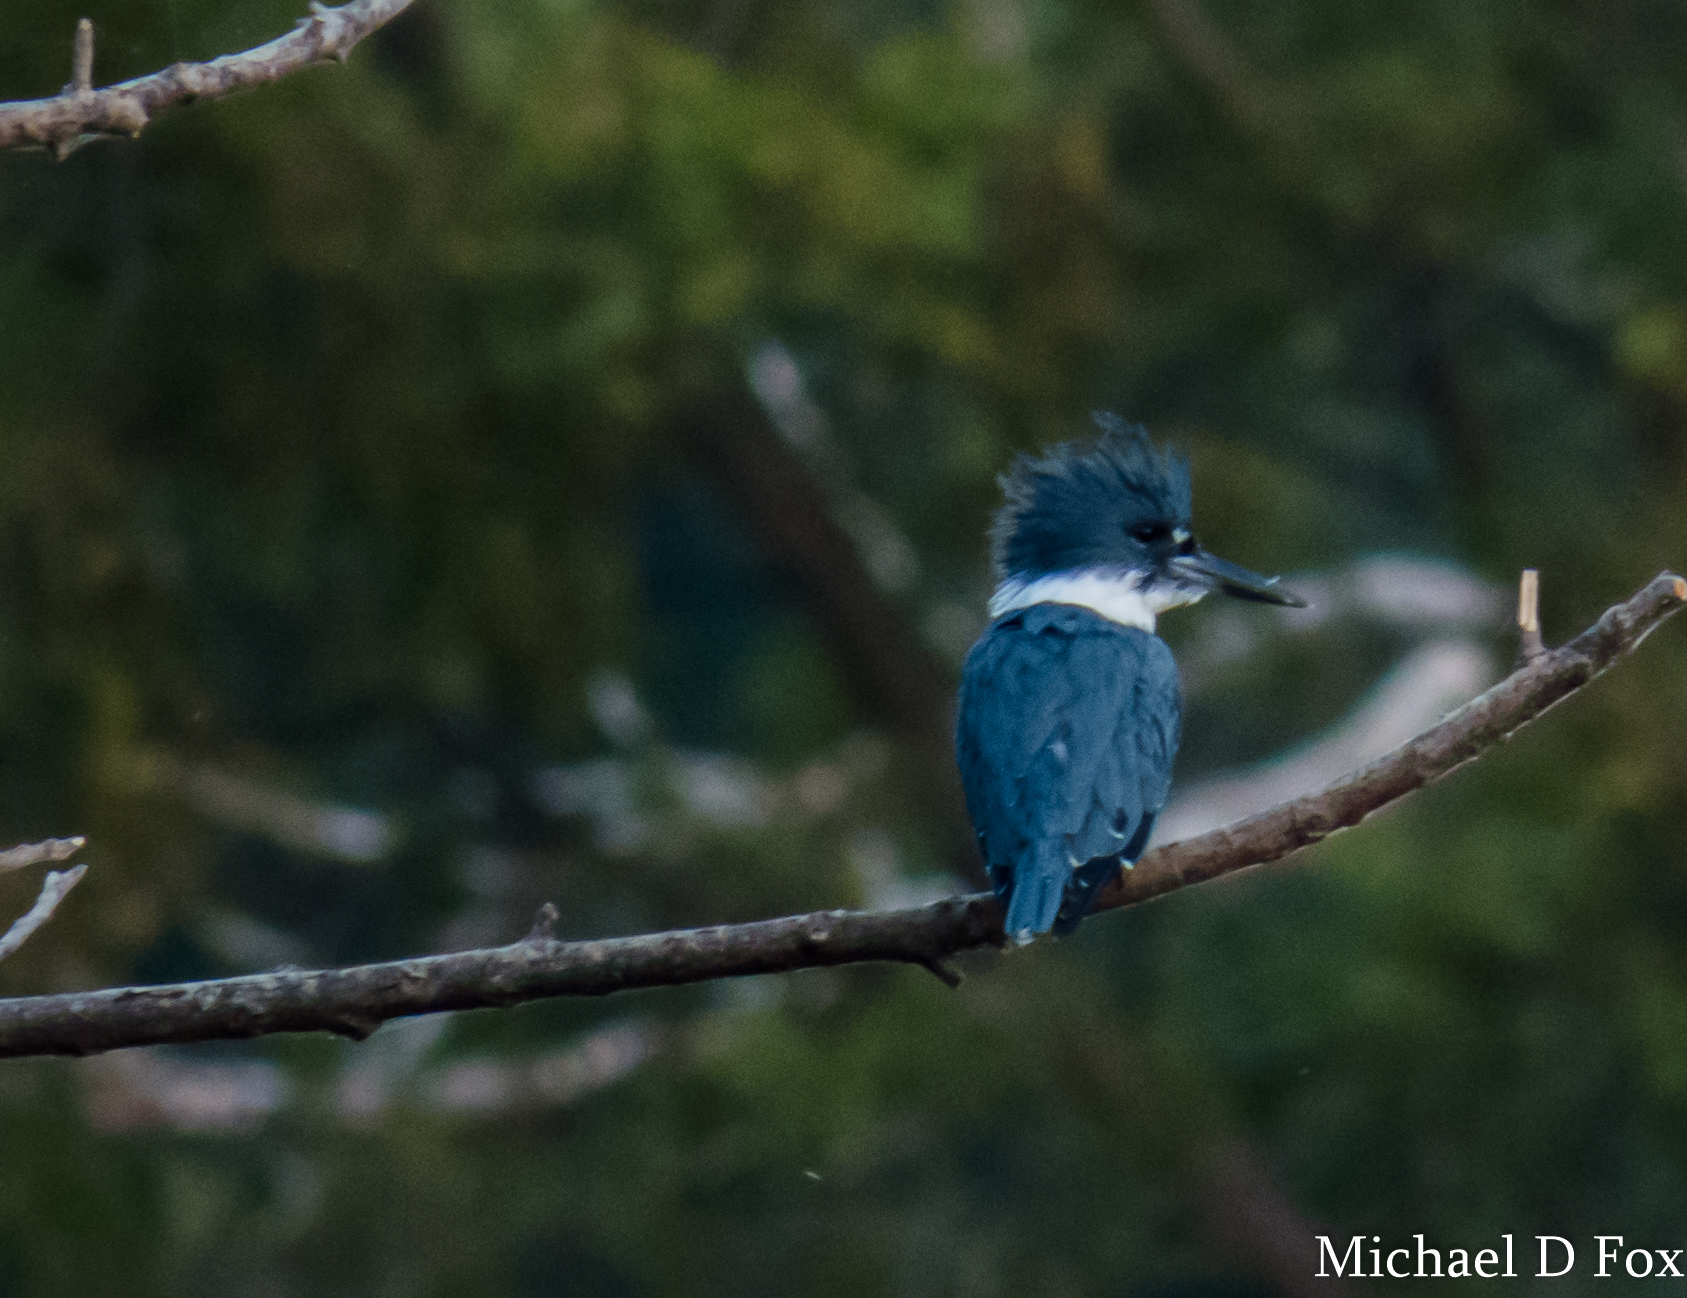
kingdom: Animalia
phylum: Chordata
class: Aves
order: Coraciiformes
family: Alcedinidae
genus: Megaceryle
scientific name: Megaceryle alcyon
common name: Belted kingfisher
